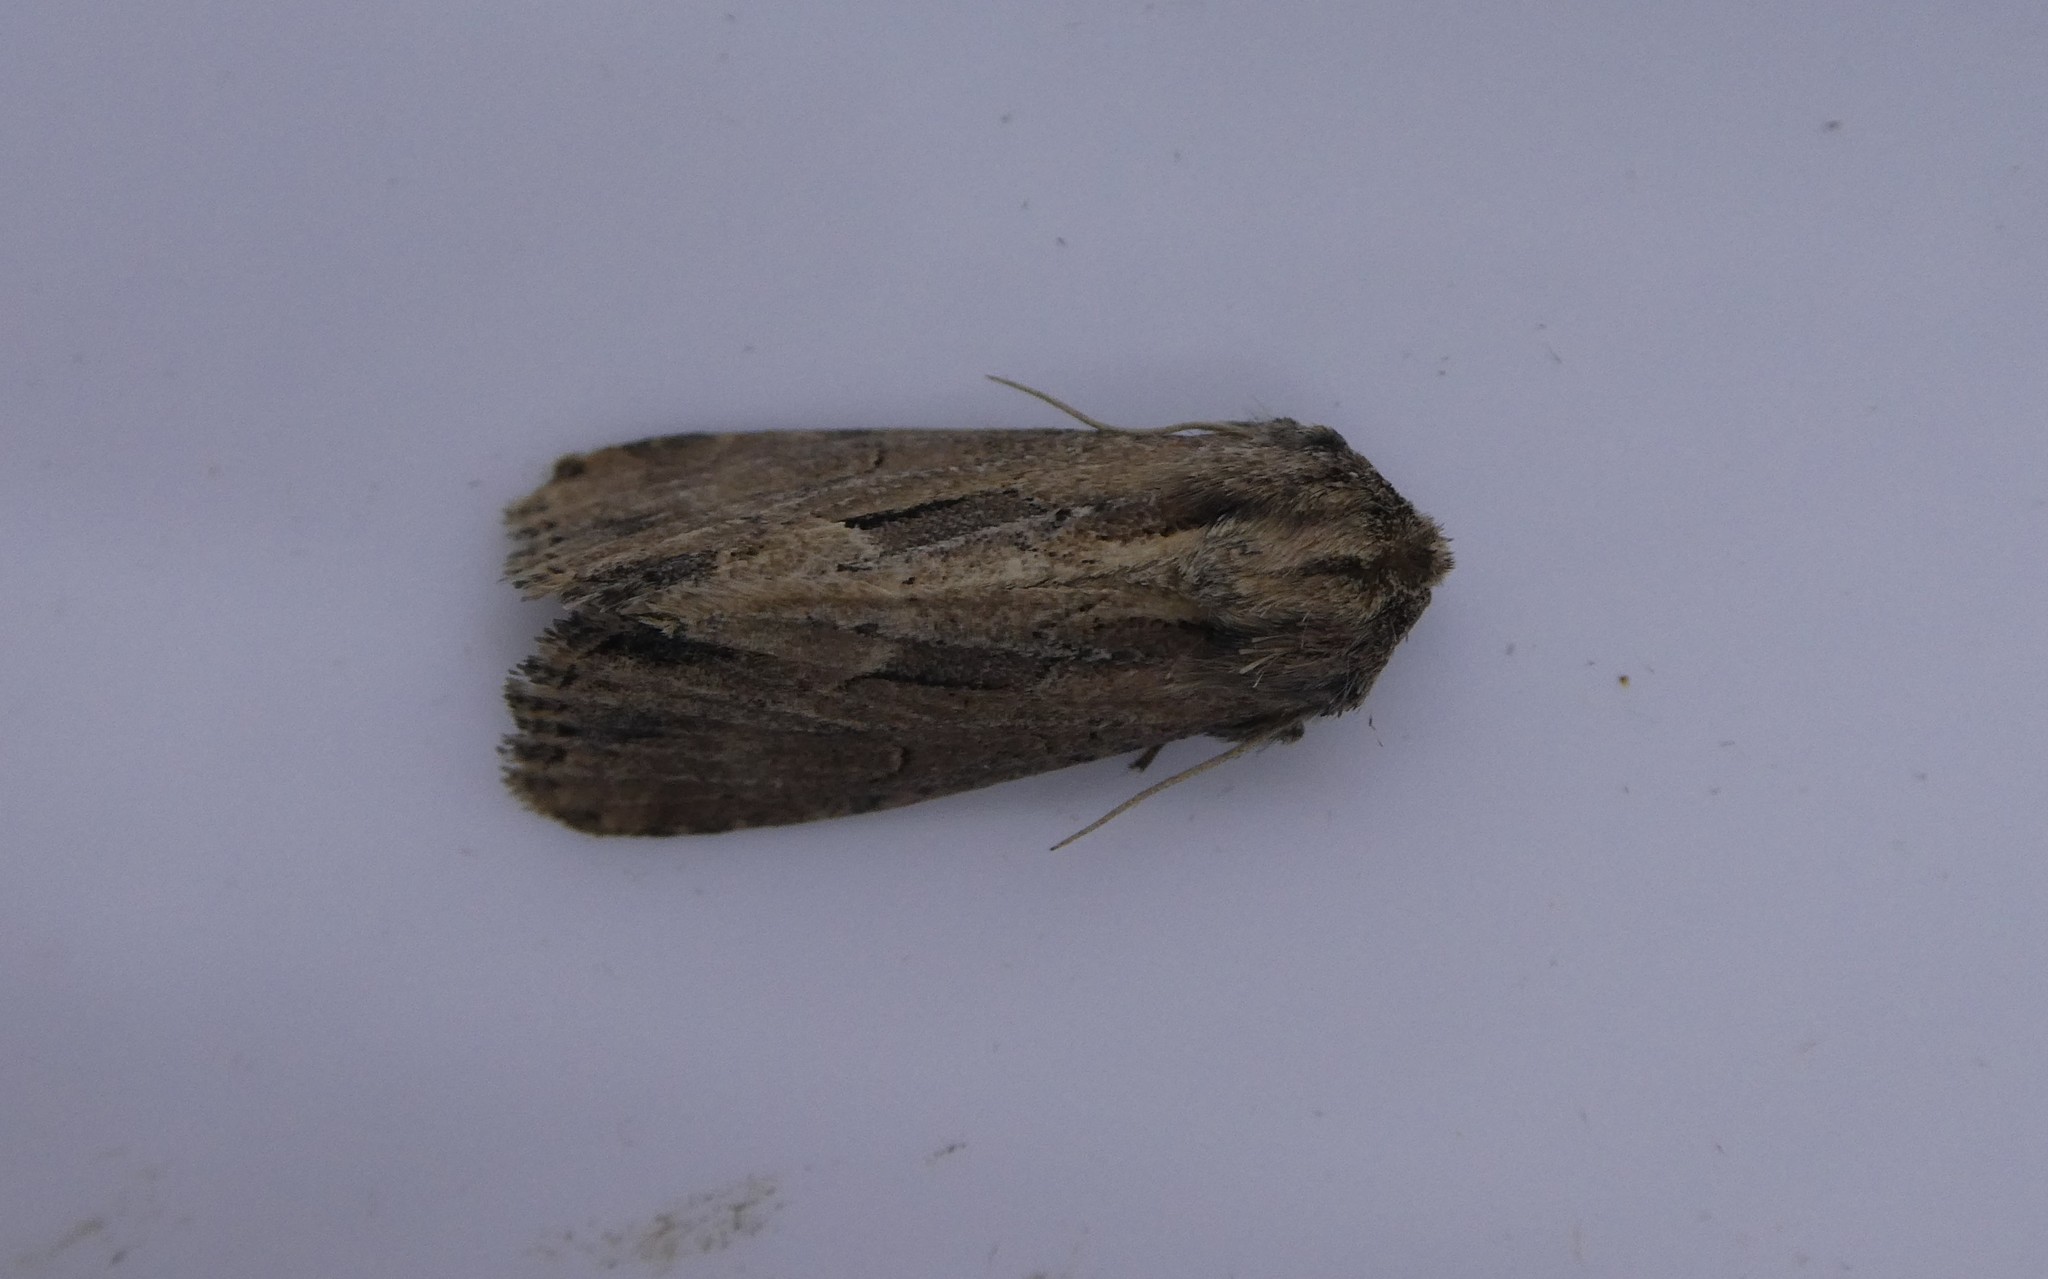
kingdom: Animalia
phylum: Arthropoda
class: Insecta
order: Lepidoptera
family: Noctuidae
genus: Xylomoia
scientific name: Xylomoia chagnoni
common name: Reed canary grass borer moth
